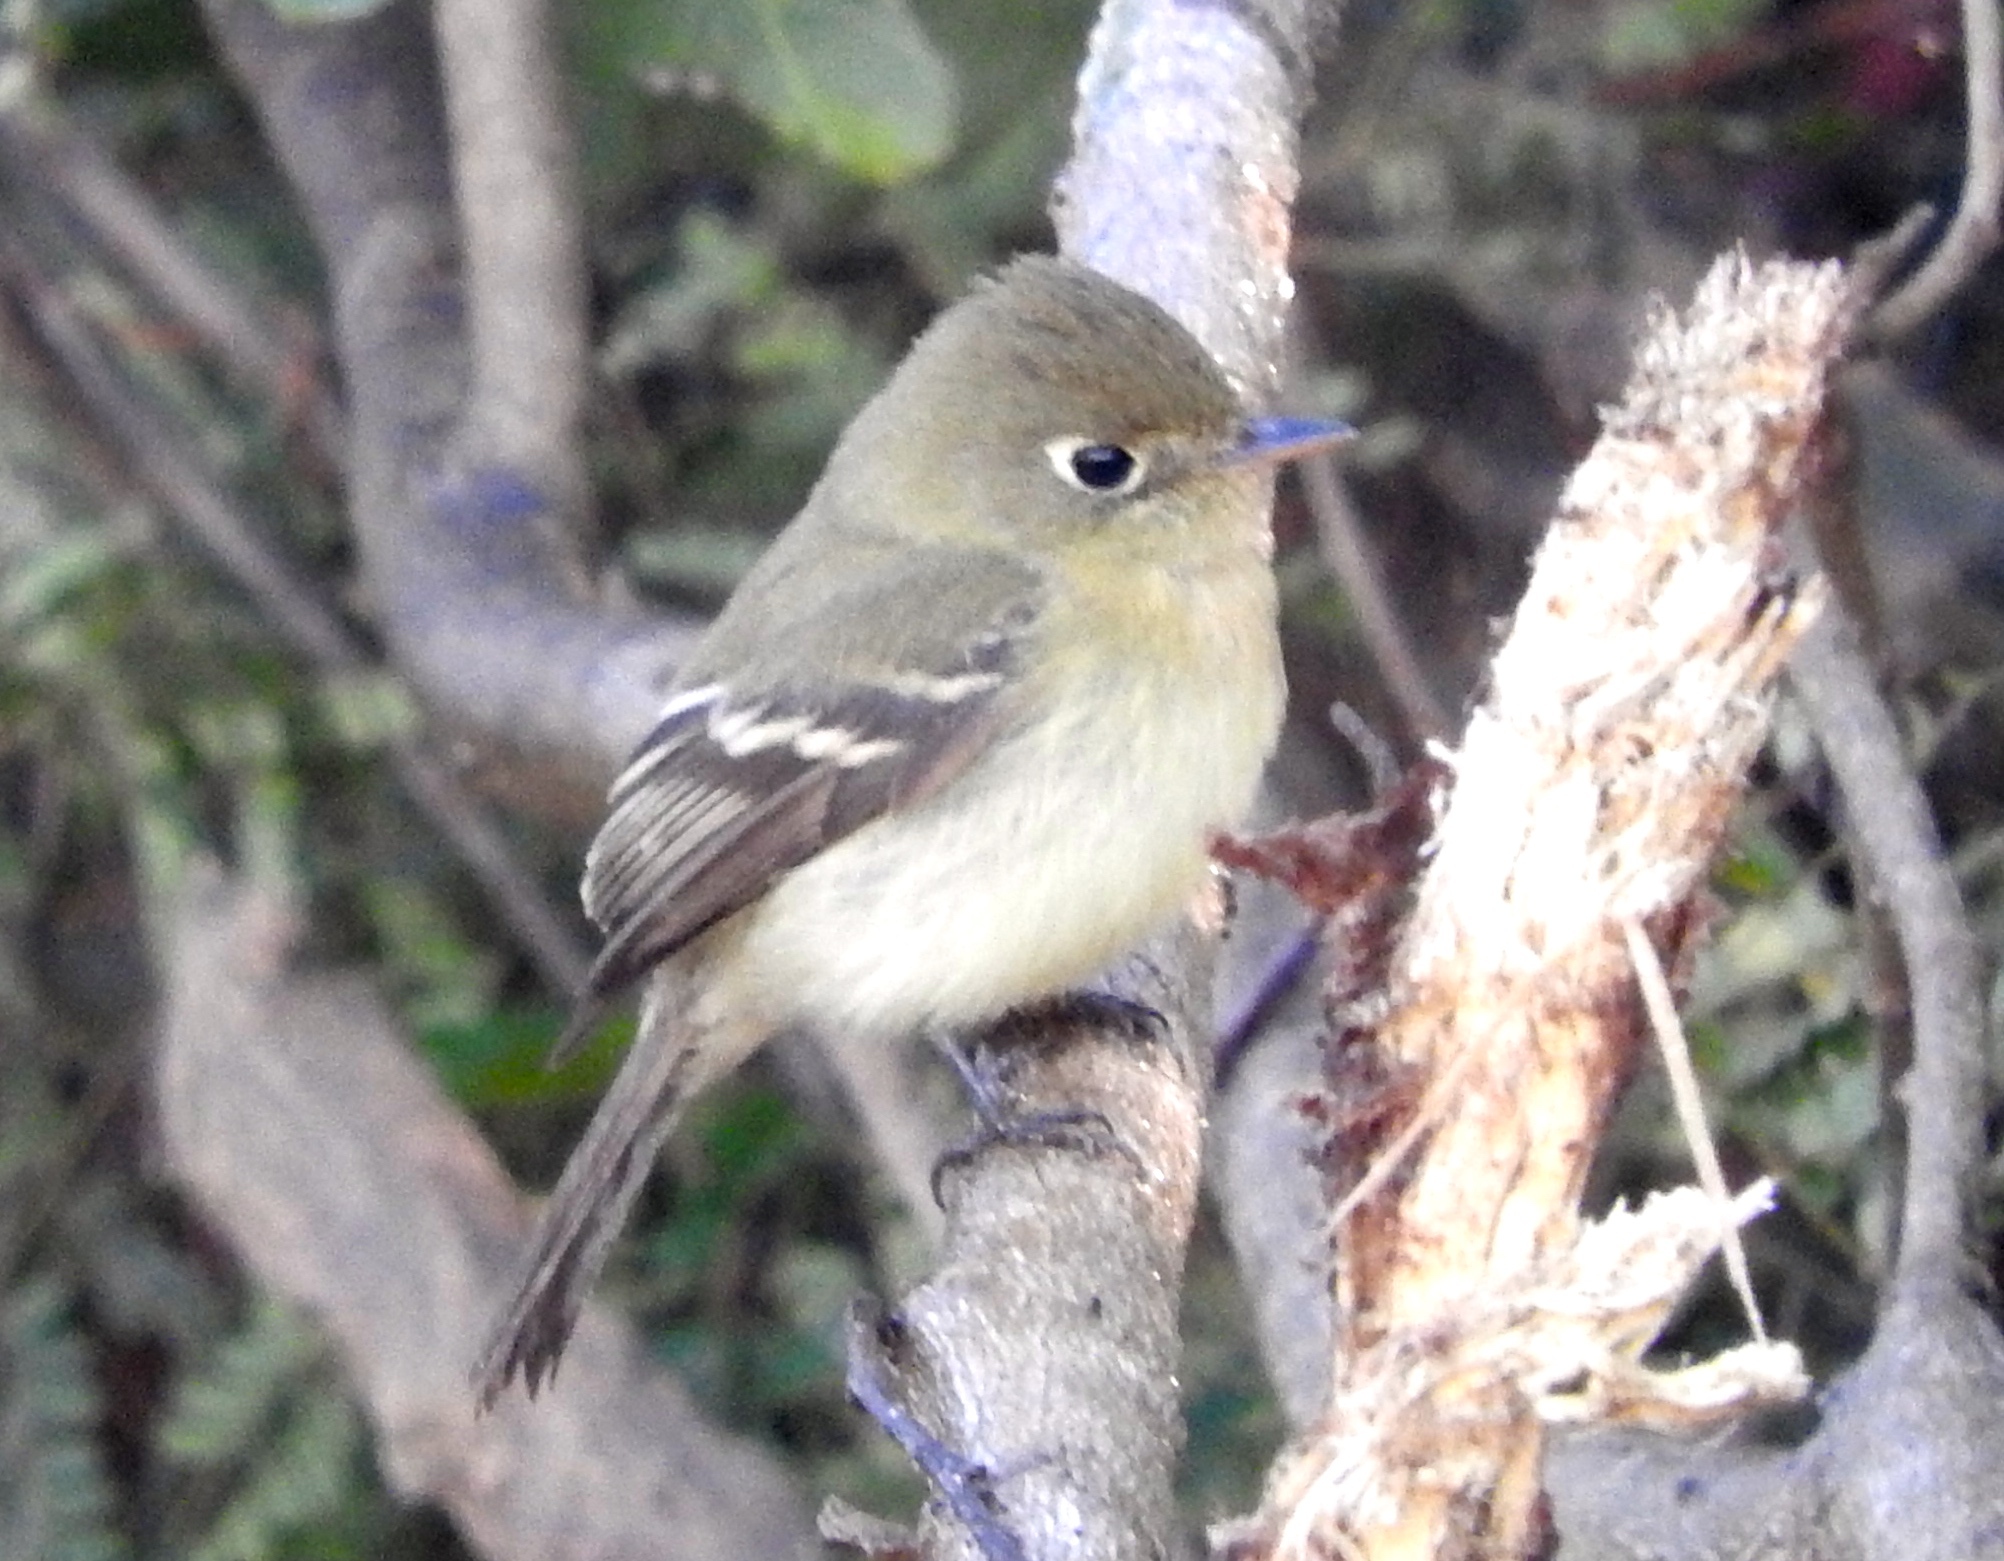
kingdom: Animalia
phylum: Chordata
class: Aves
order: Passeriformes
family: Tyrannidae
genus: Empidonax
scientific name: Empidonax
